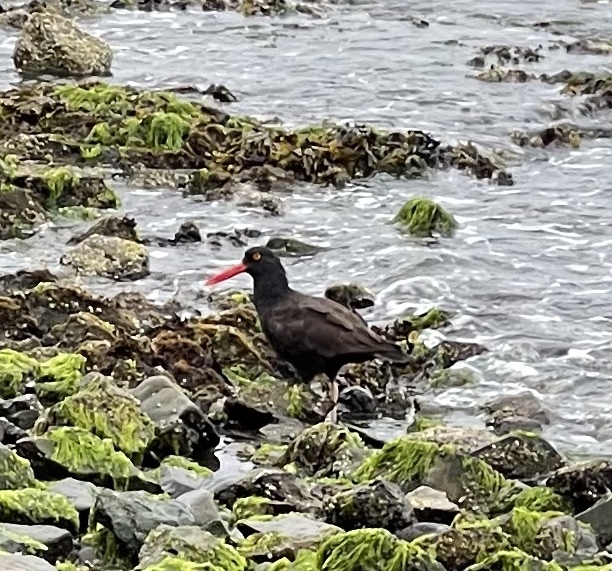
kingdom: Animalia
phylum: Chordata
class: Aves
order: Charadriiformes
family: Haematopodidae
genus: Haematopus
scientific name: Haematopus bachmani
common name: Black oystercatcher
